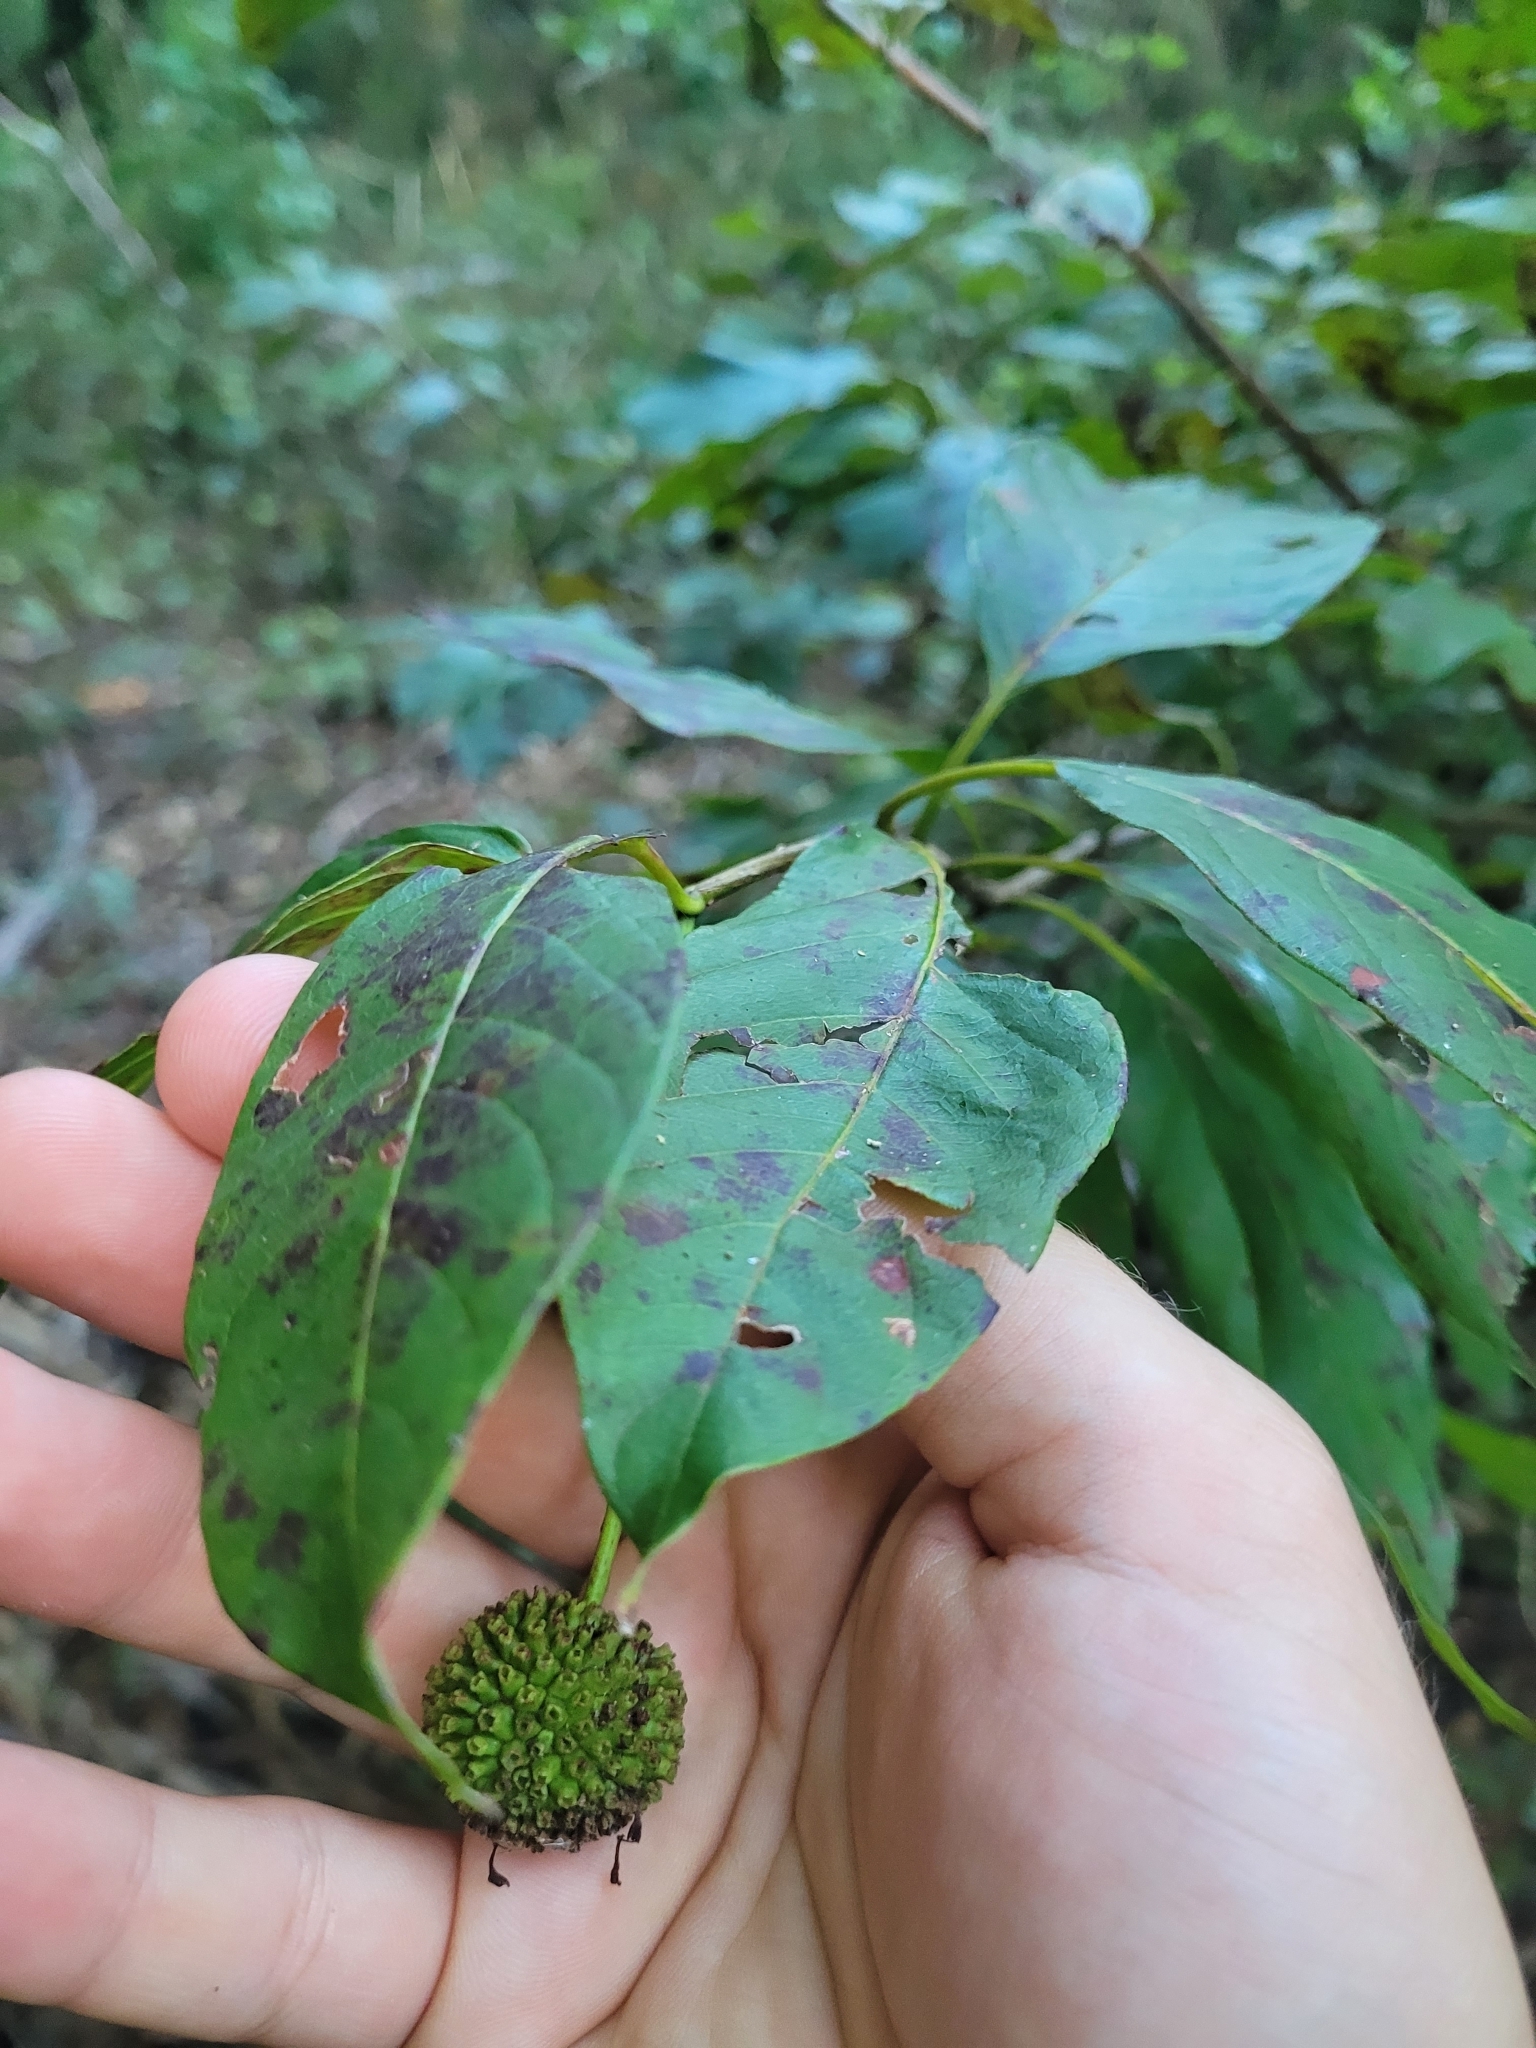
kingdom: Plantae
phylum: Tracheophyta
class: Magnoliopsida
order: Gentianales
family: Rubiaceae
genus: Cephalanthus
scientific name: Cephalanthus occidentalis
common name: Button-willow
